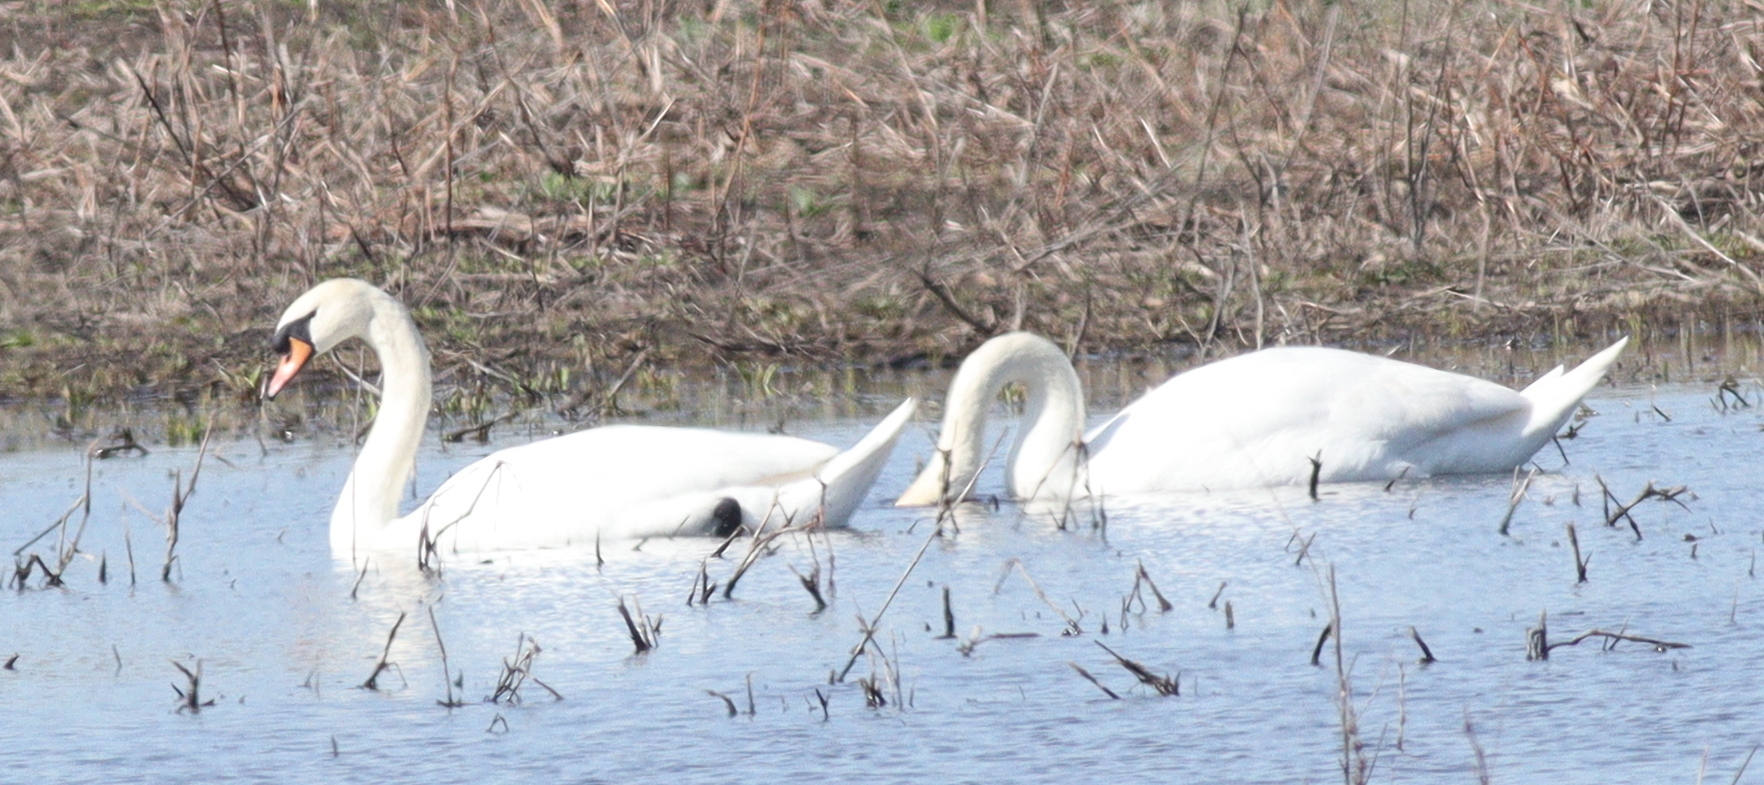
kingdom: Animalia
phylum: Chordata
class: Aves
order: Anseriformes
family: Anatidae
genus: Cygnus
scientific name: Cygnus olor
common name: Mute swan
